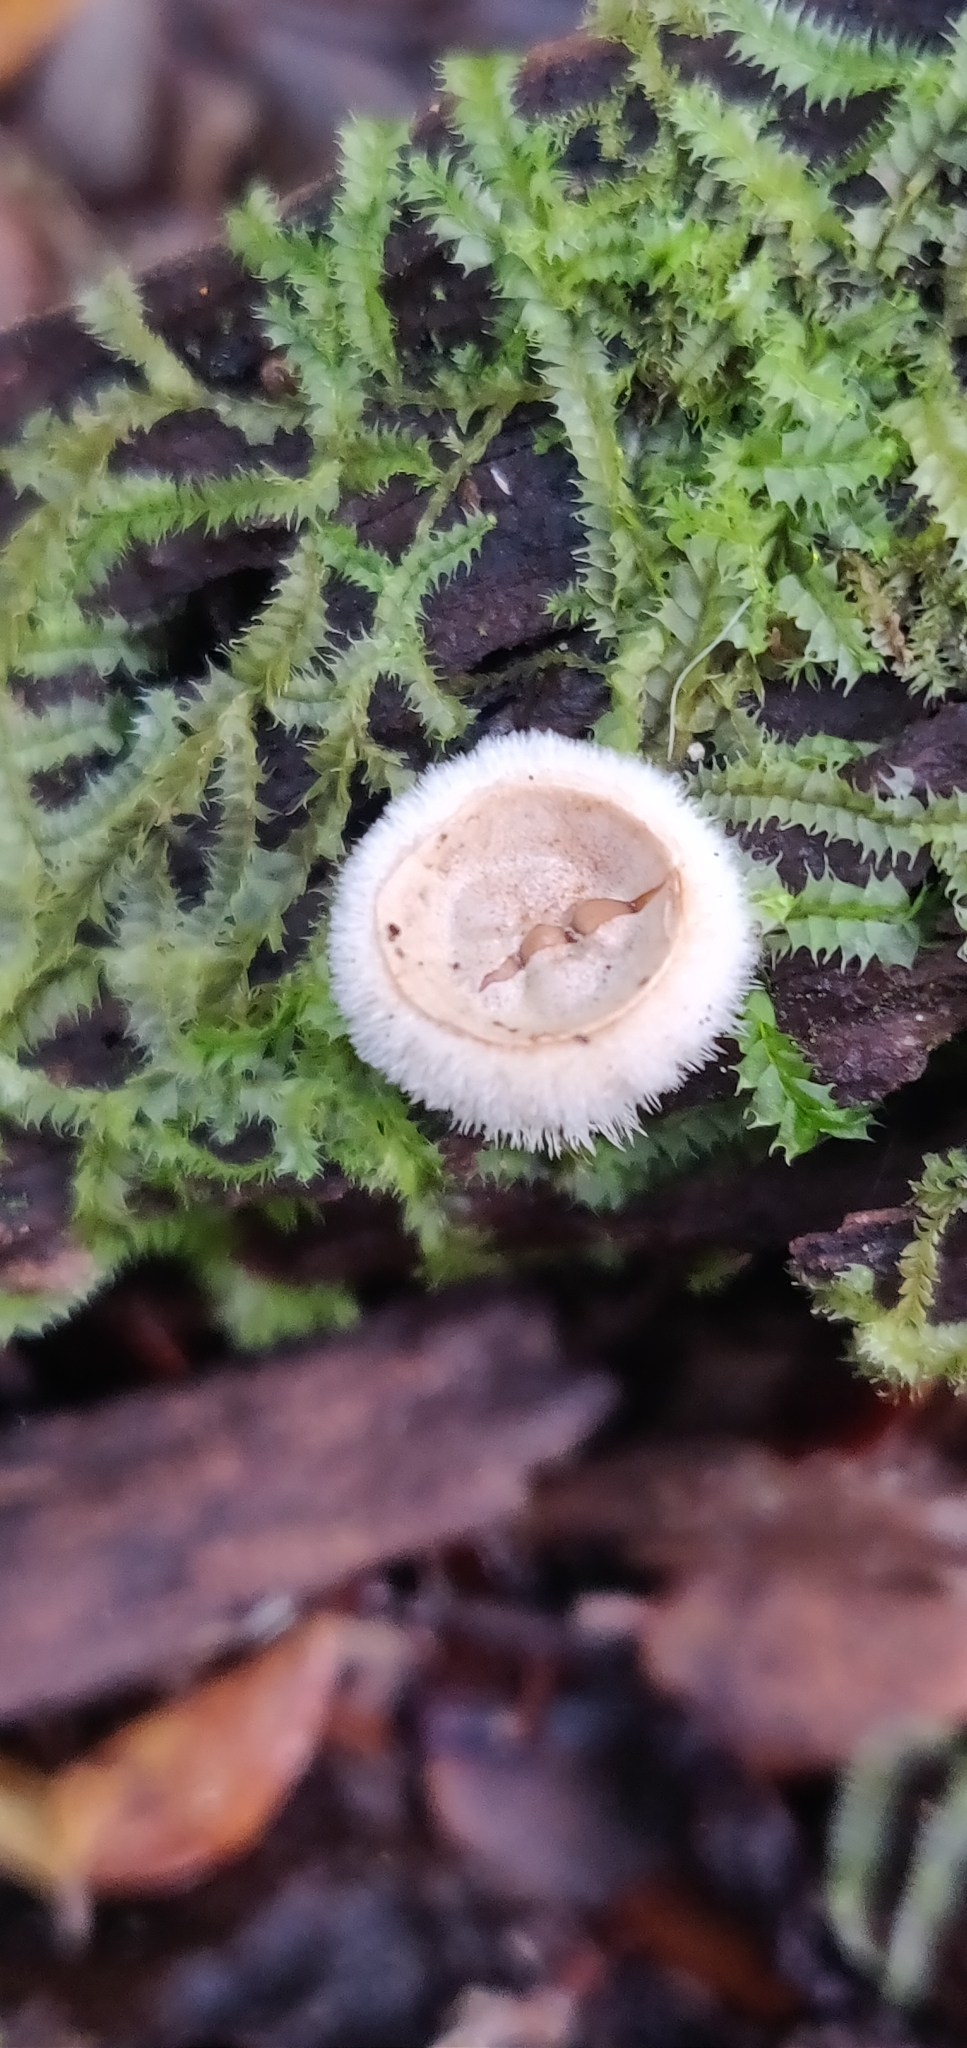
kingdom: Fungi
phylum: Basidiomycota
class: Agaricomycetes
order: Agaricales
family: Agaricaceae
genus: Nidula
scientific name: Nidula niveotomentosa
